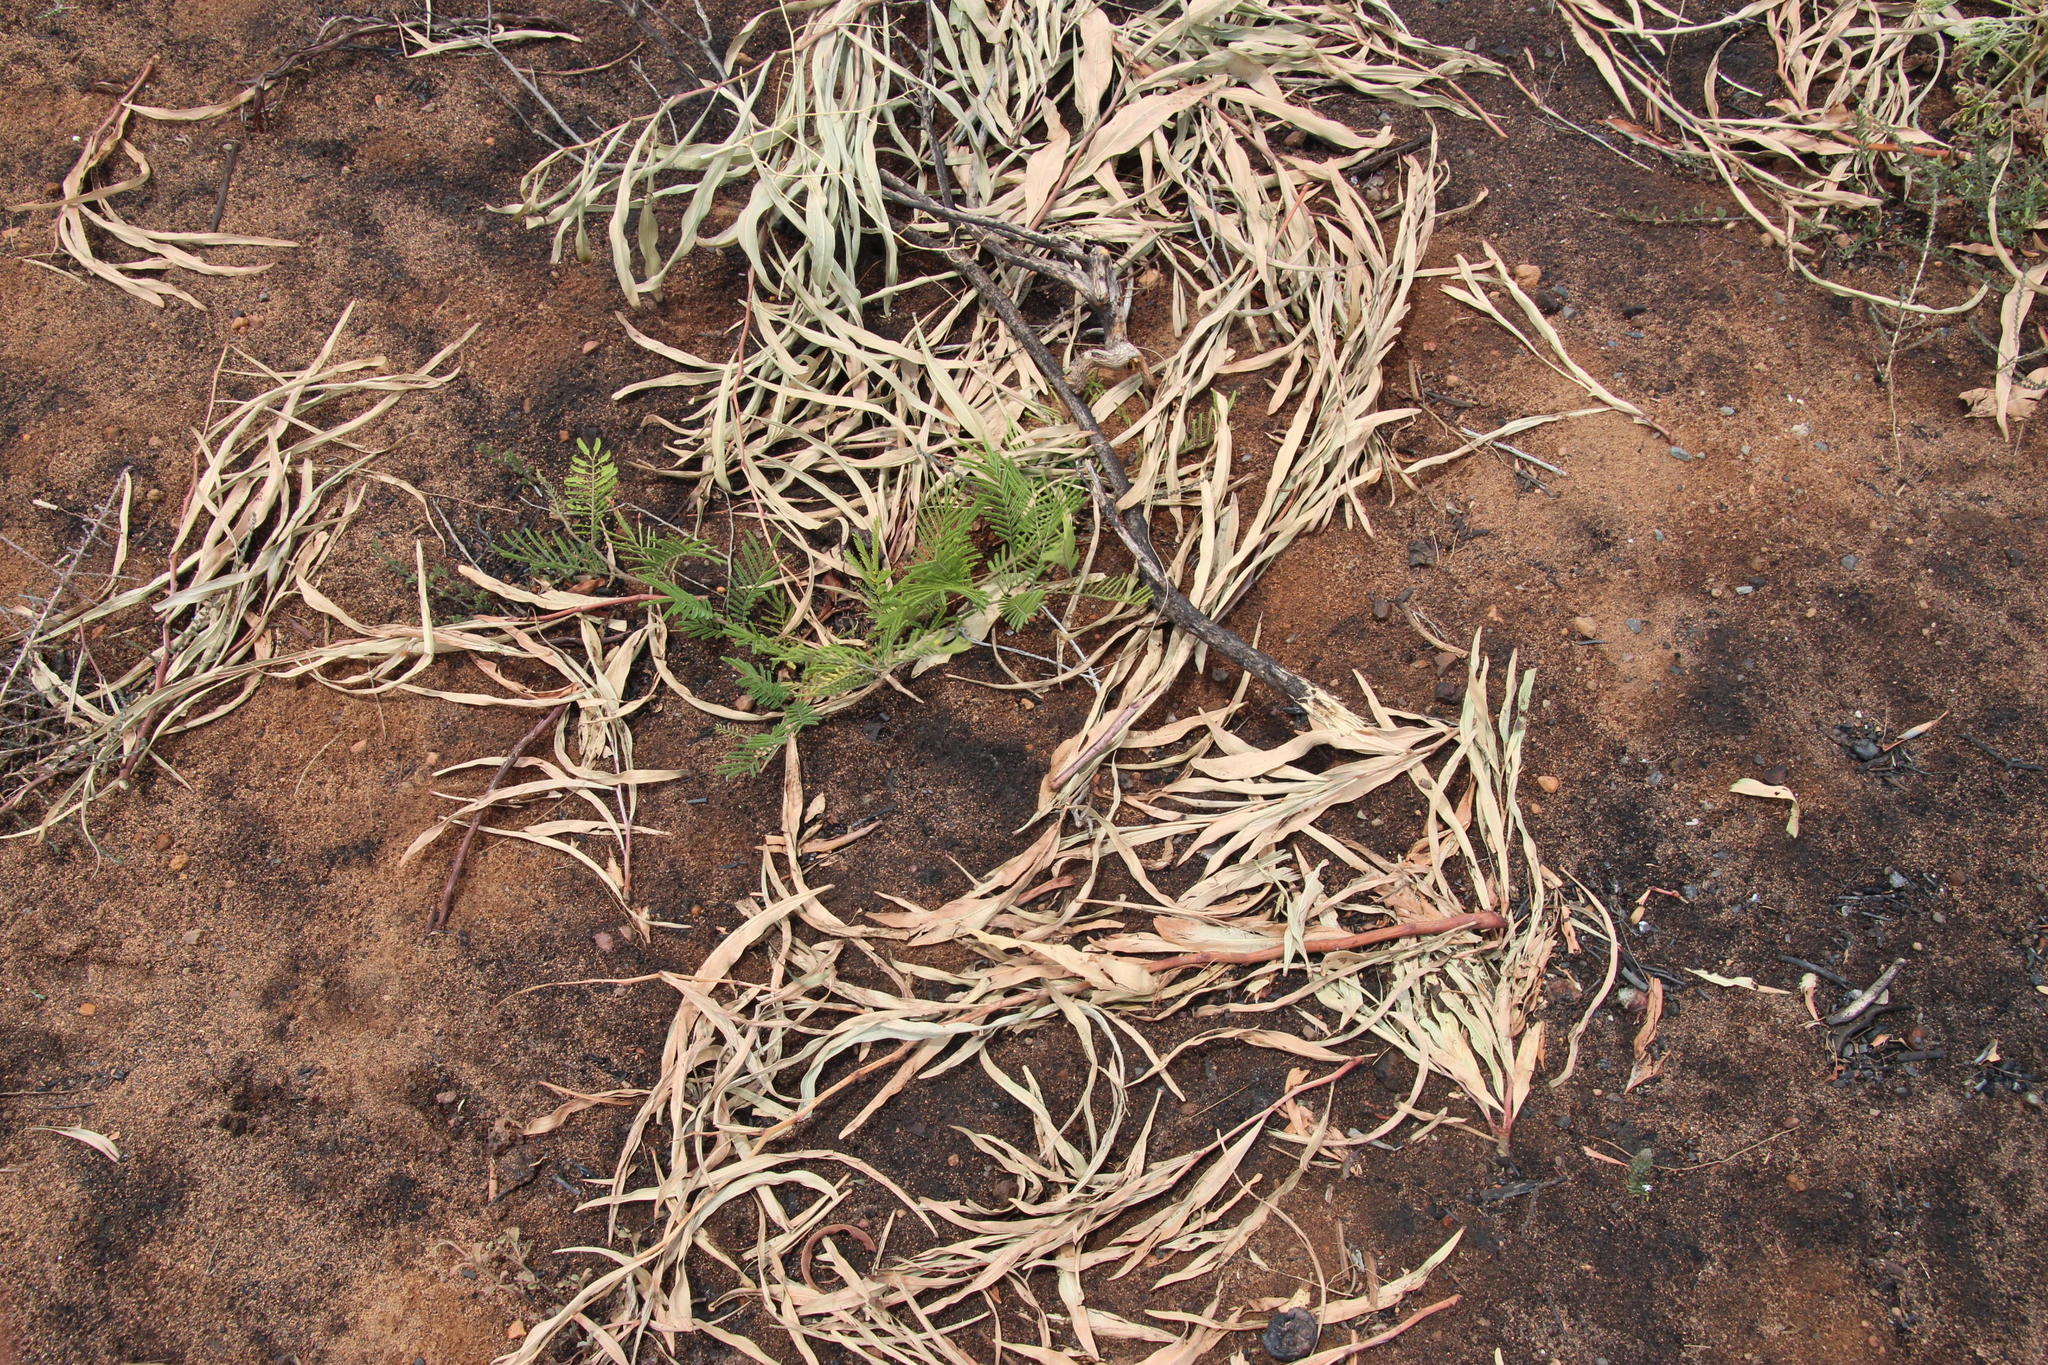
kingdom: Plantae
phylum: Tracheophyta
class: Magnoliopsida
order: Fabales
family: Fabaceae
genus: Acacia
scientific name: Acacia saligna
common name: Orange wattle
